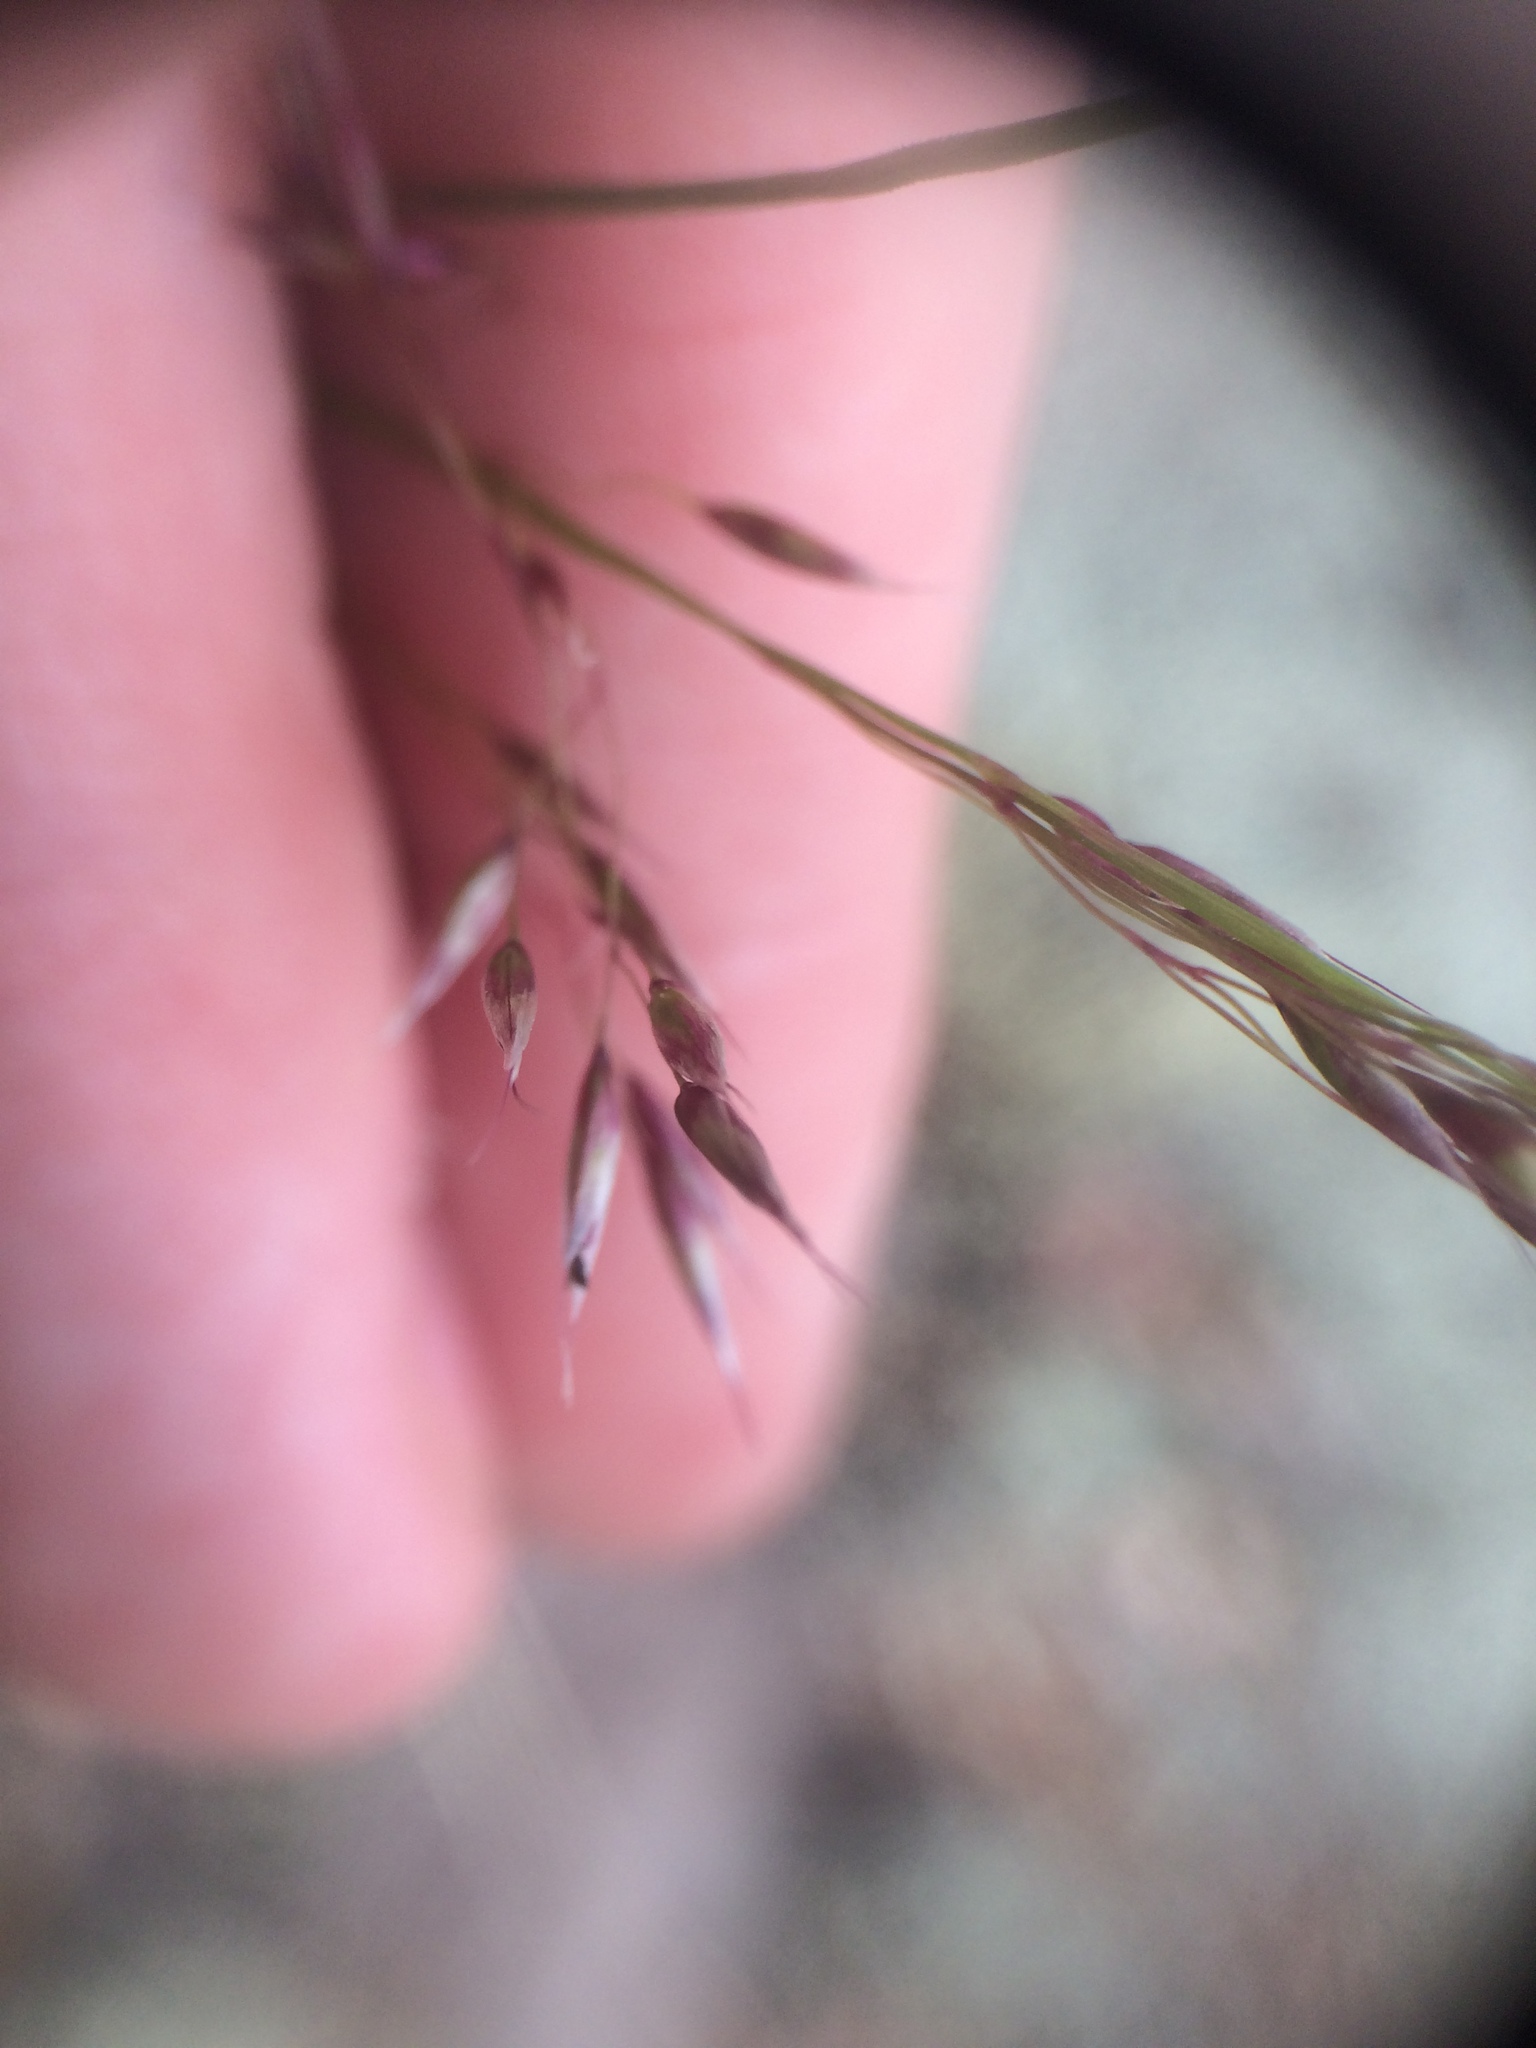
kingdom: Plantae
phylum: Tracheophyta
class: Liliopsida
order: Poales
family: Poaceae
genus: Avenella
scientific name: Avenella flexuosa
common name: Wavy hairgrass
